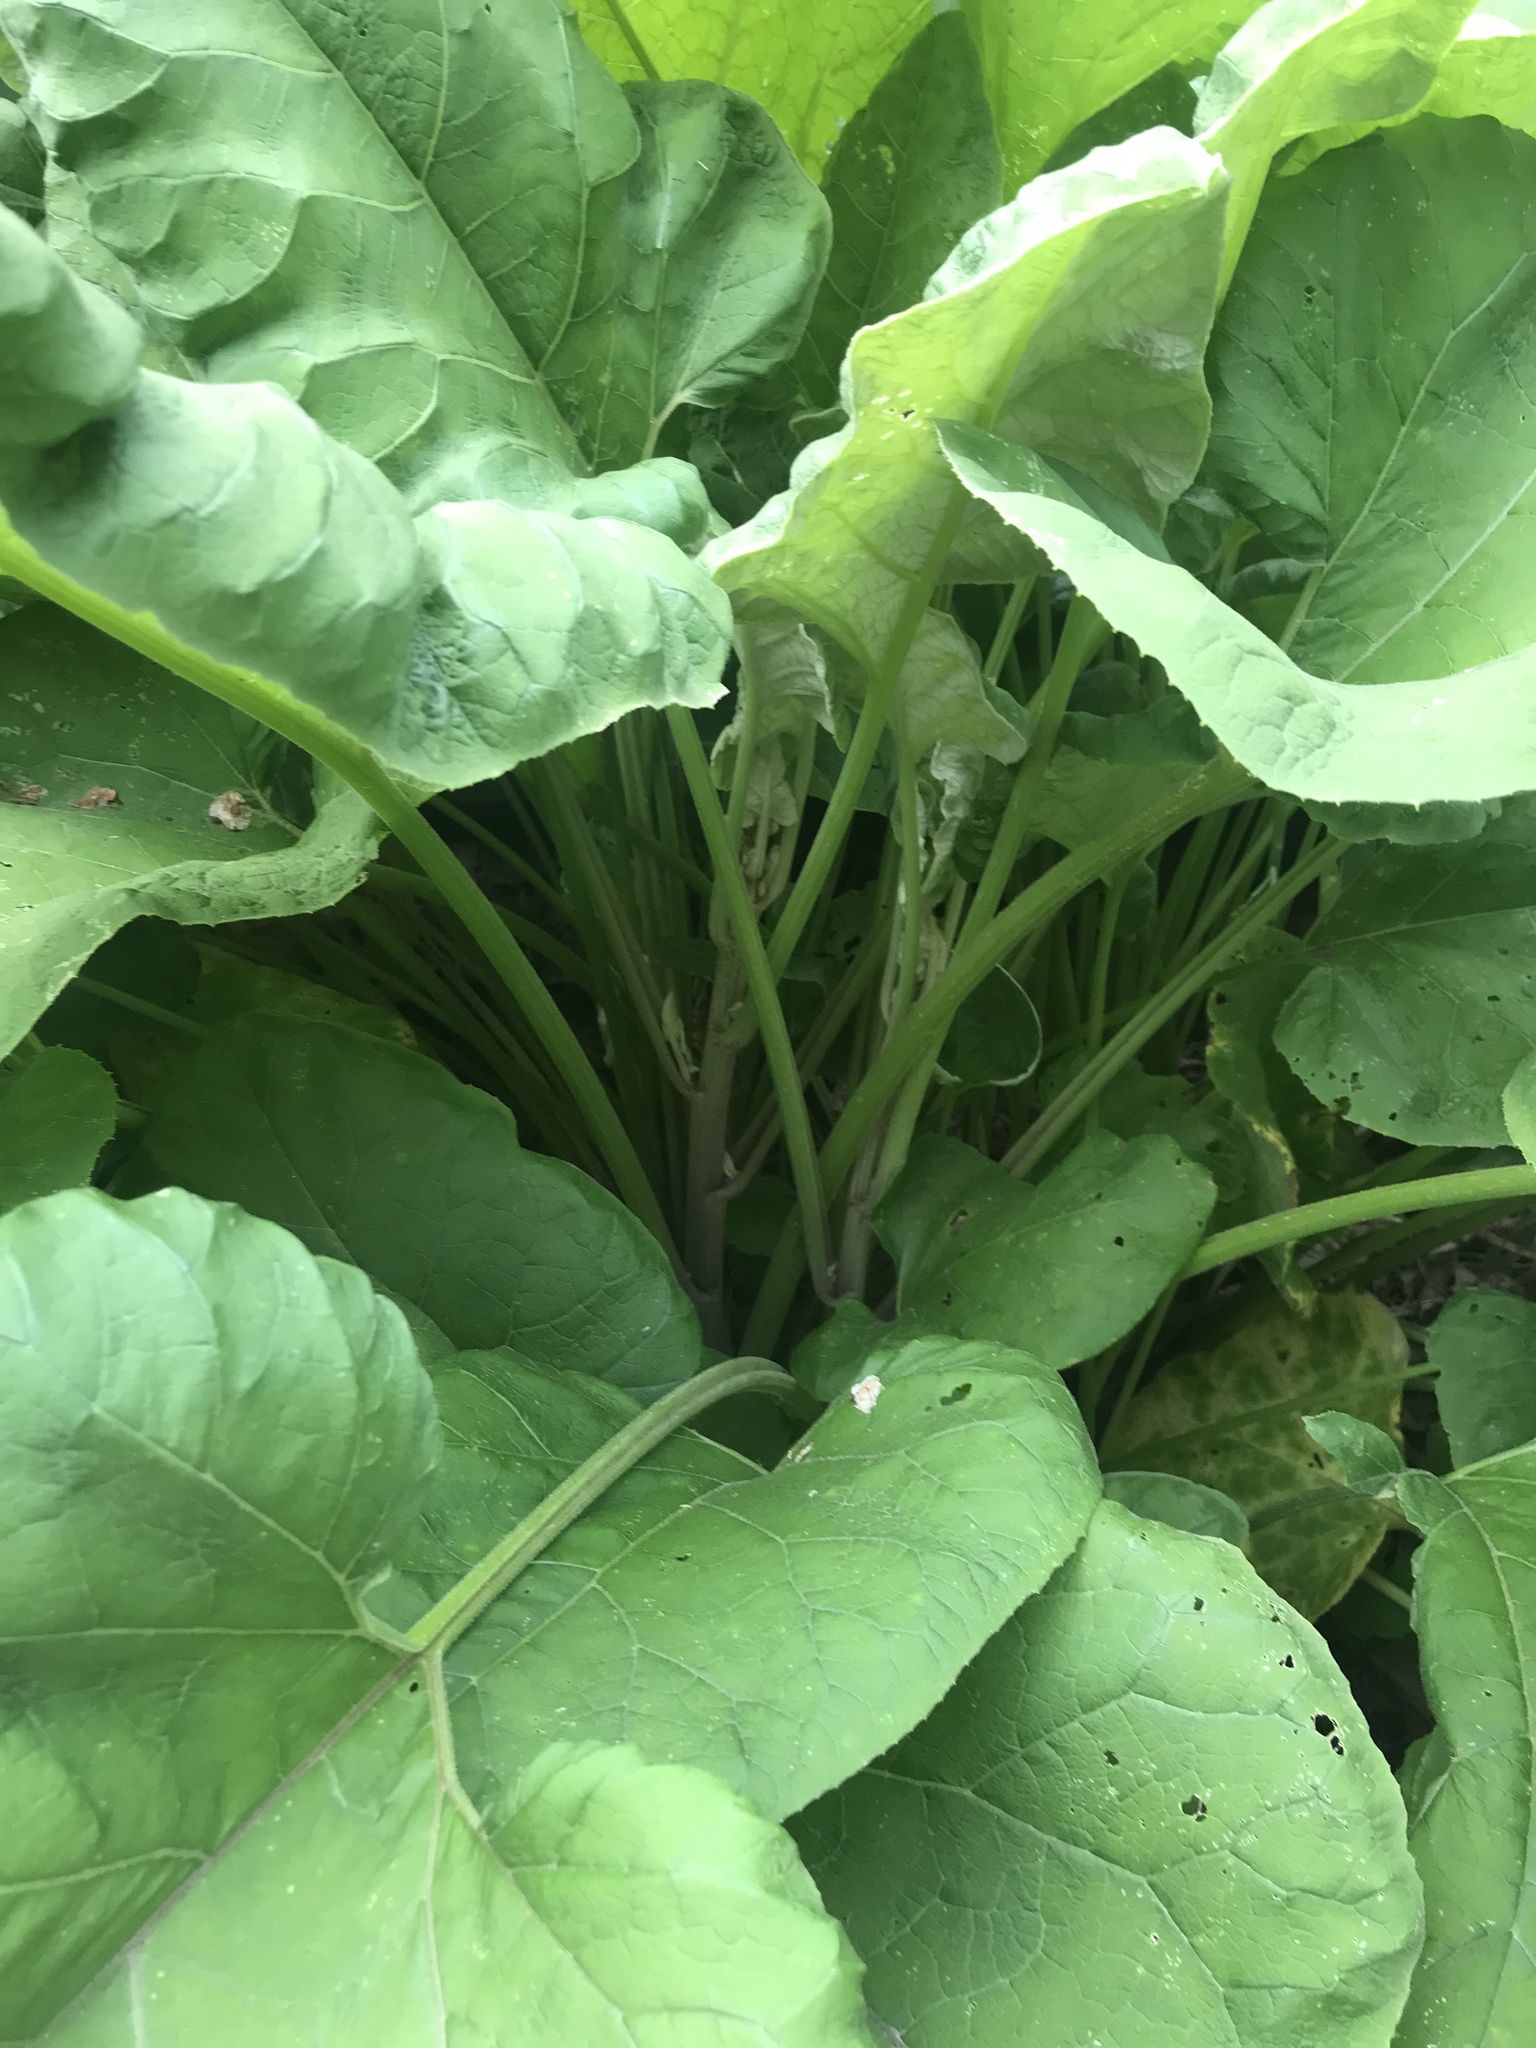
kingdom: Plantae
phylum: Tracheophyta
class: Magnoliopsida
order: Asterales
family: Asteraceae
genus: Arctium
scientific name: Arctium
